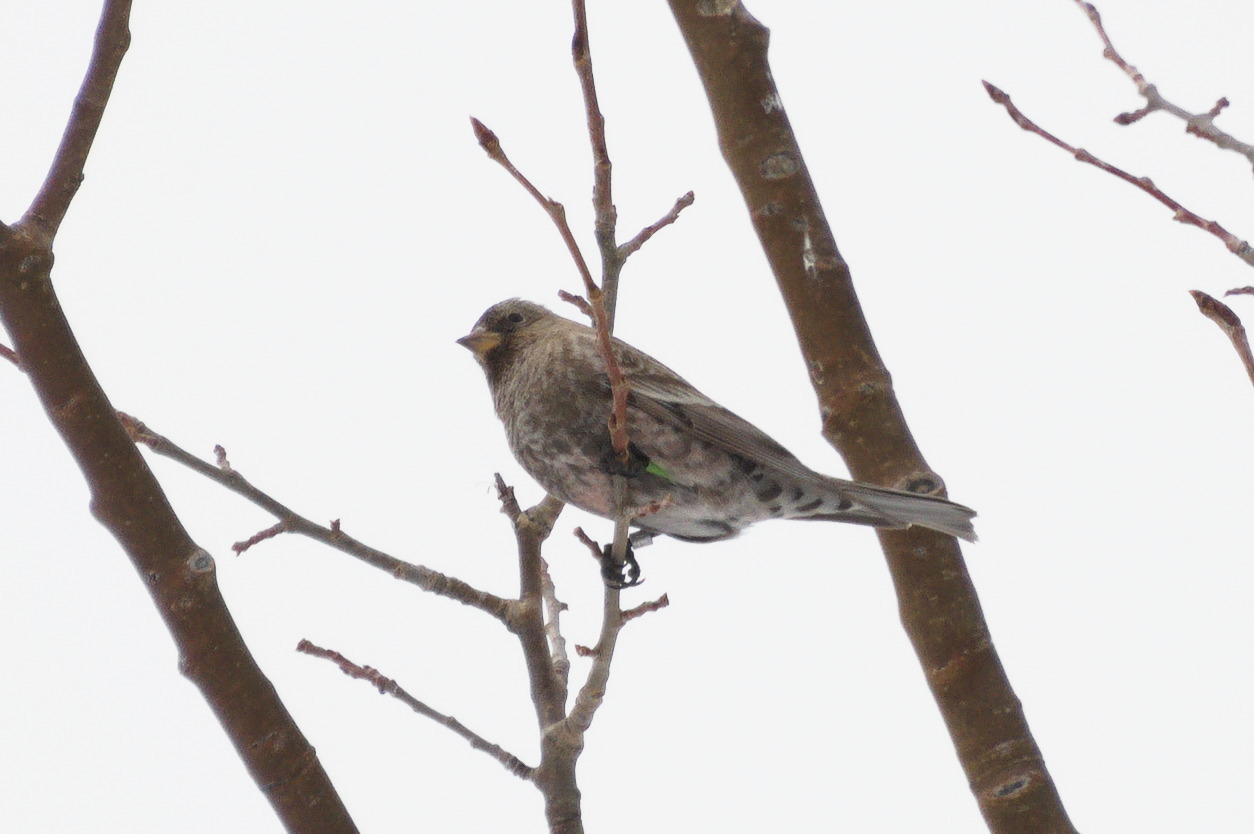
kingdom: Animalia
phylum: Chordata
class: Aves
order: Passeriformes
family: Fringillidae
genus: Leucosticte
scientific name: Leucosticte australis
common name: Brown-capped rosy-finch
